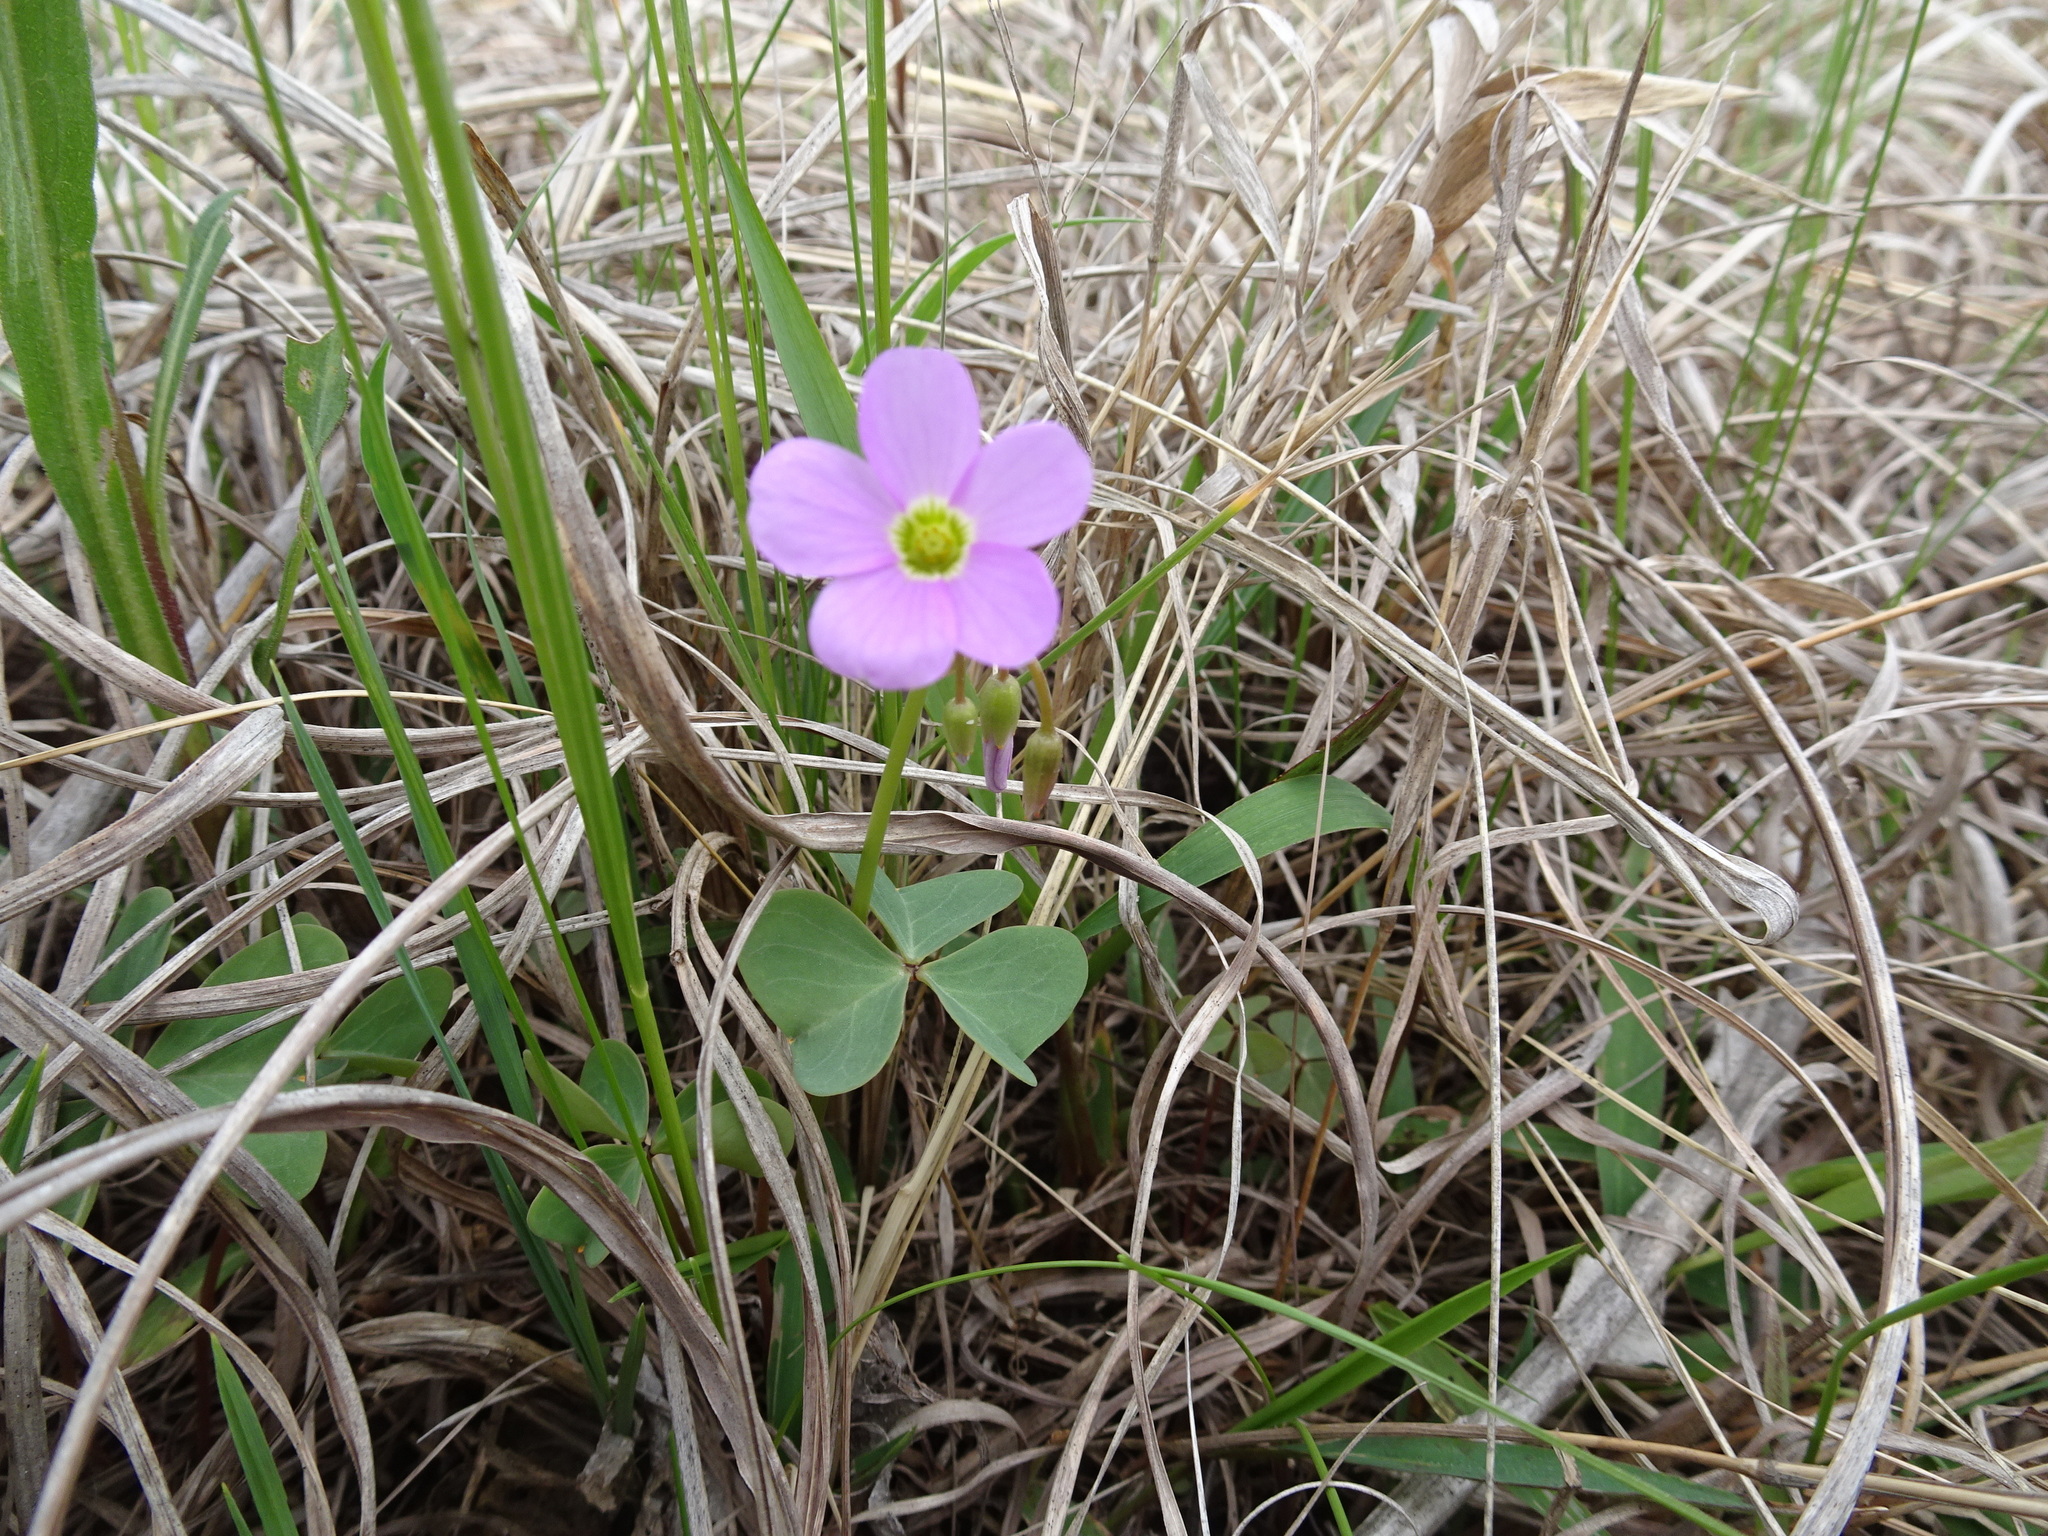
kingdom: Plantae
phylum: Tracheophyta
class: Magnoliopsida
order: Oxalidales
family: Oxalidaceae
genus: Oxalis
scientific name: Oxalis violacea
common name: Violet wood-sorrel
